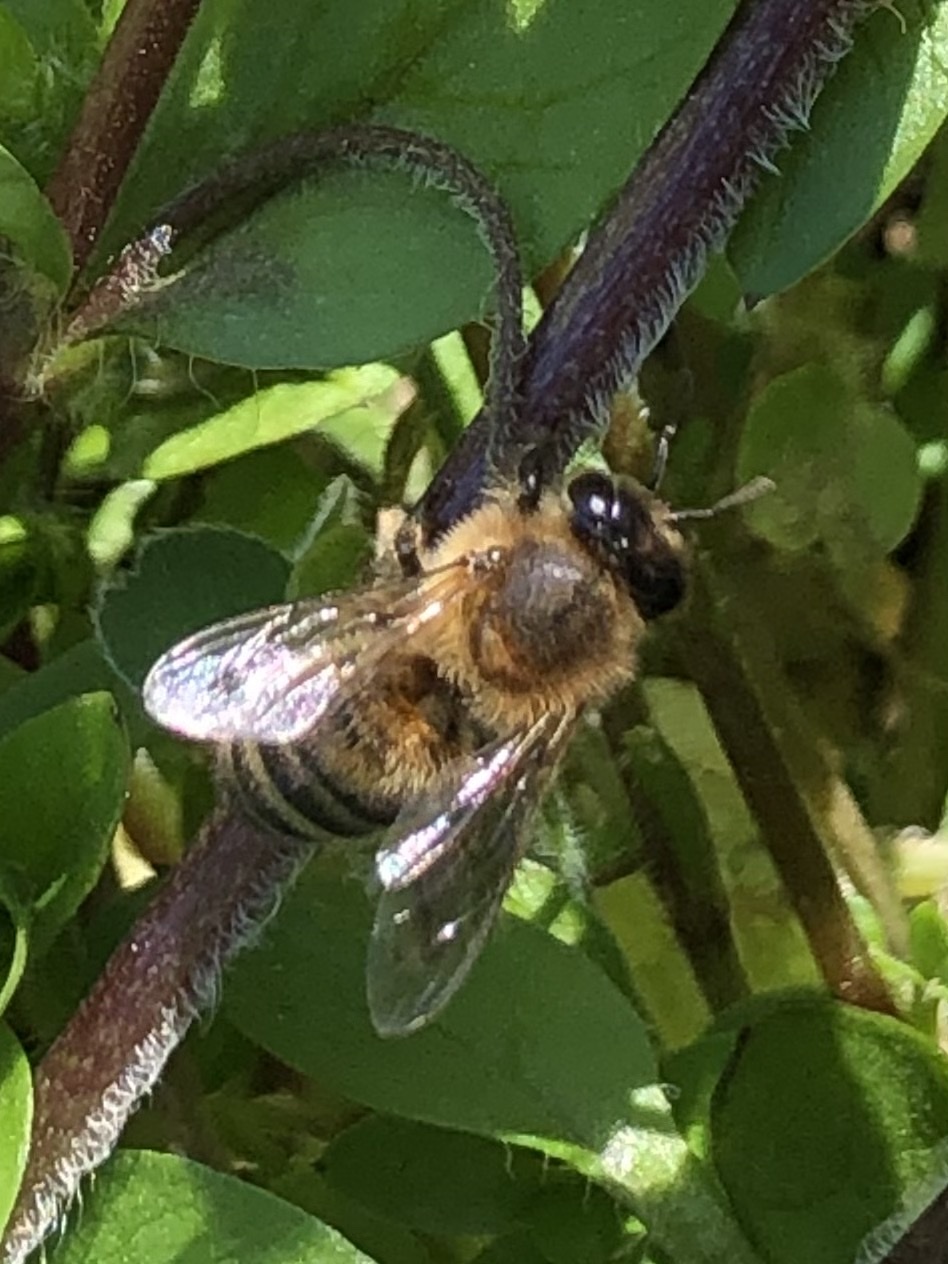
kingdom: Animalia
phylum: Arthropoda
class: Insecta
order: Hymenoptera
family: Apidae
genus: Apis
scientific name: Apis mellifera
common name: Honey bee
